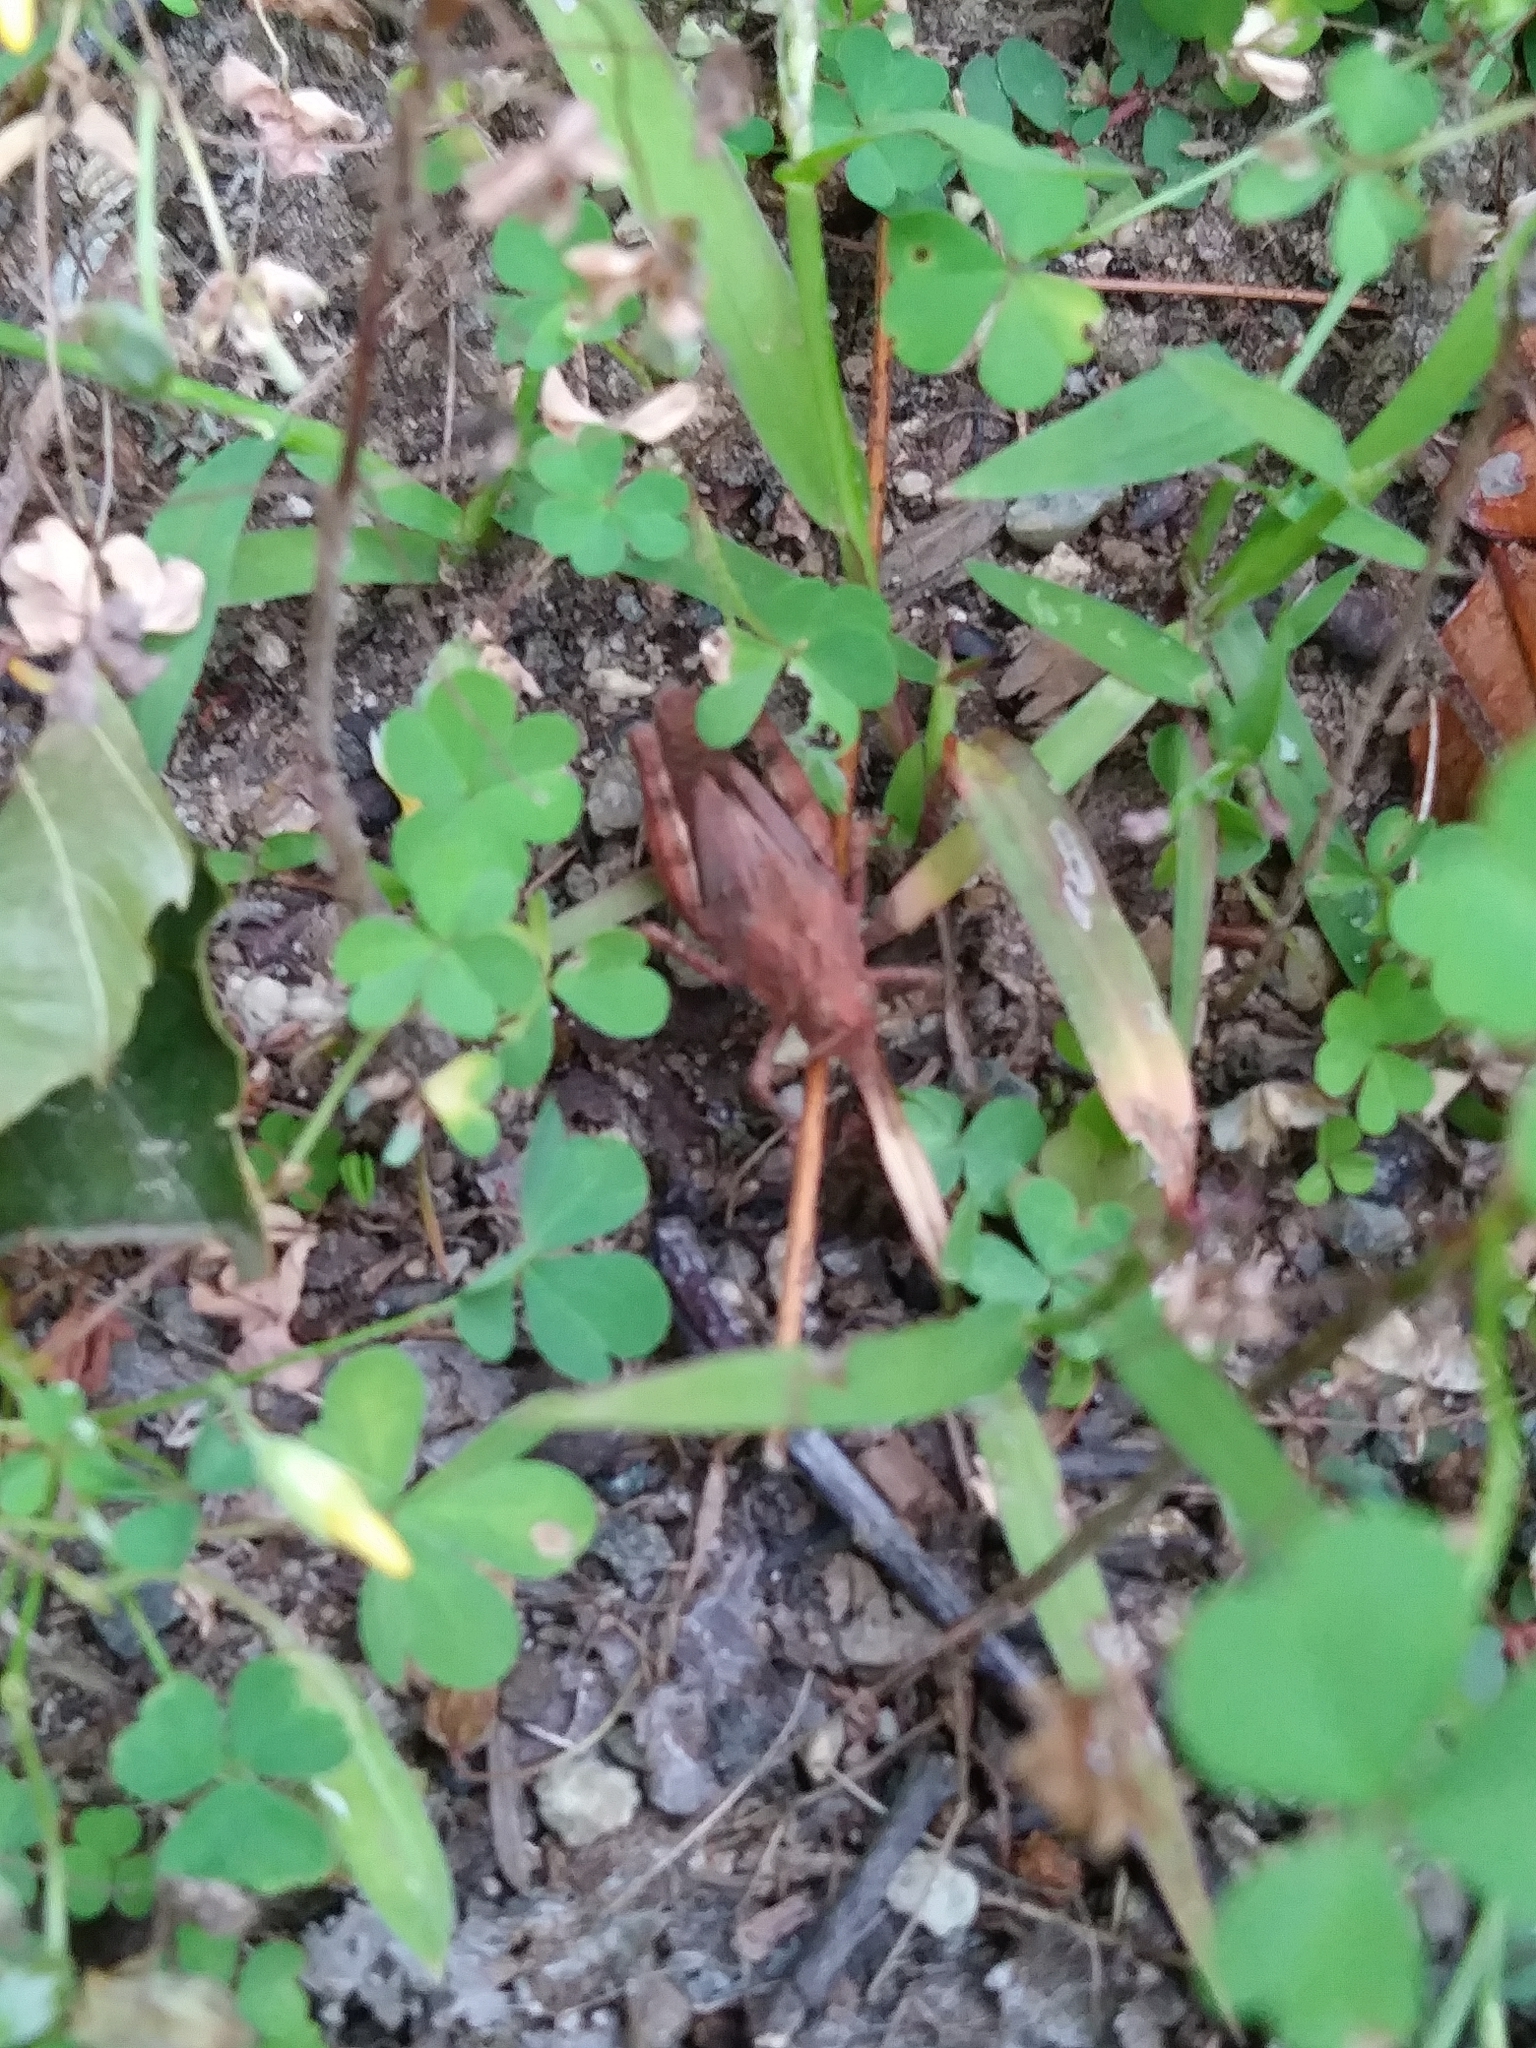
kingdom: Animalia
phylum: Arthropoda
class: Insecta
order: Orthoptera
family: Acrididae
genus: Dissosteira
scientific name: Dissosteira carolina
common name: Carolina grasshopper
